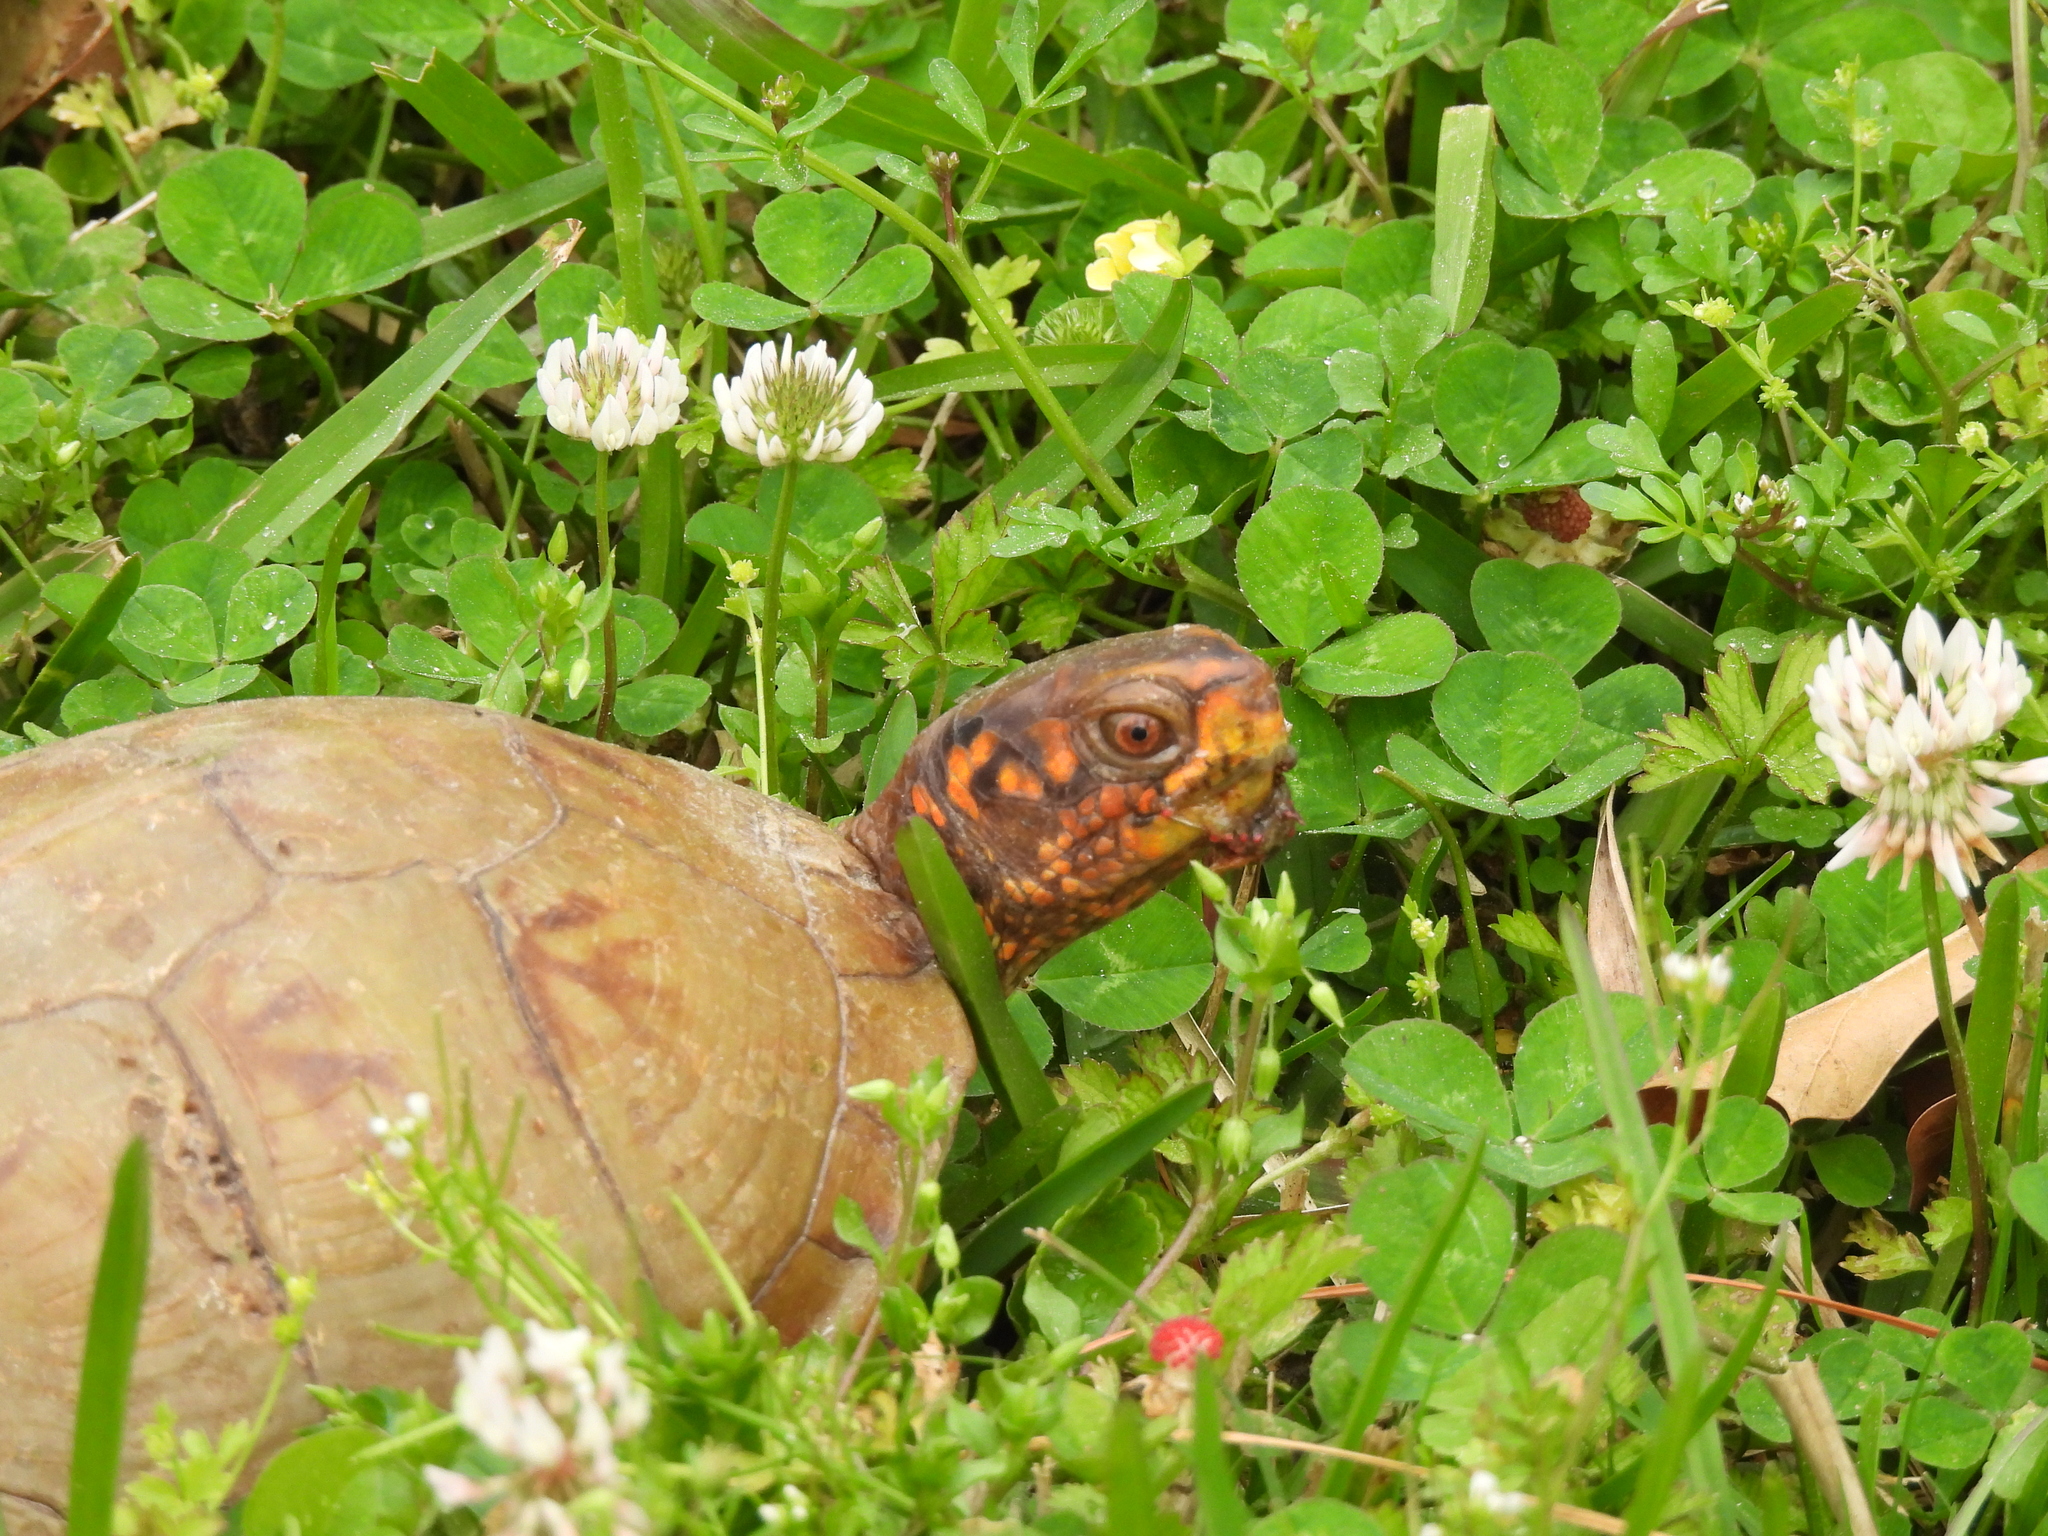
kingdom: Animalia
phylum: Chordata
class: Testudines
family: Emydidae
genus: Terrapene
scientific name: Terrapene carolina
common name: Common box turtle
